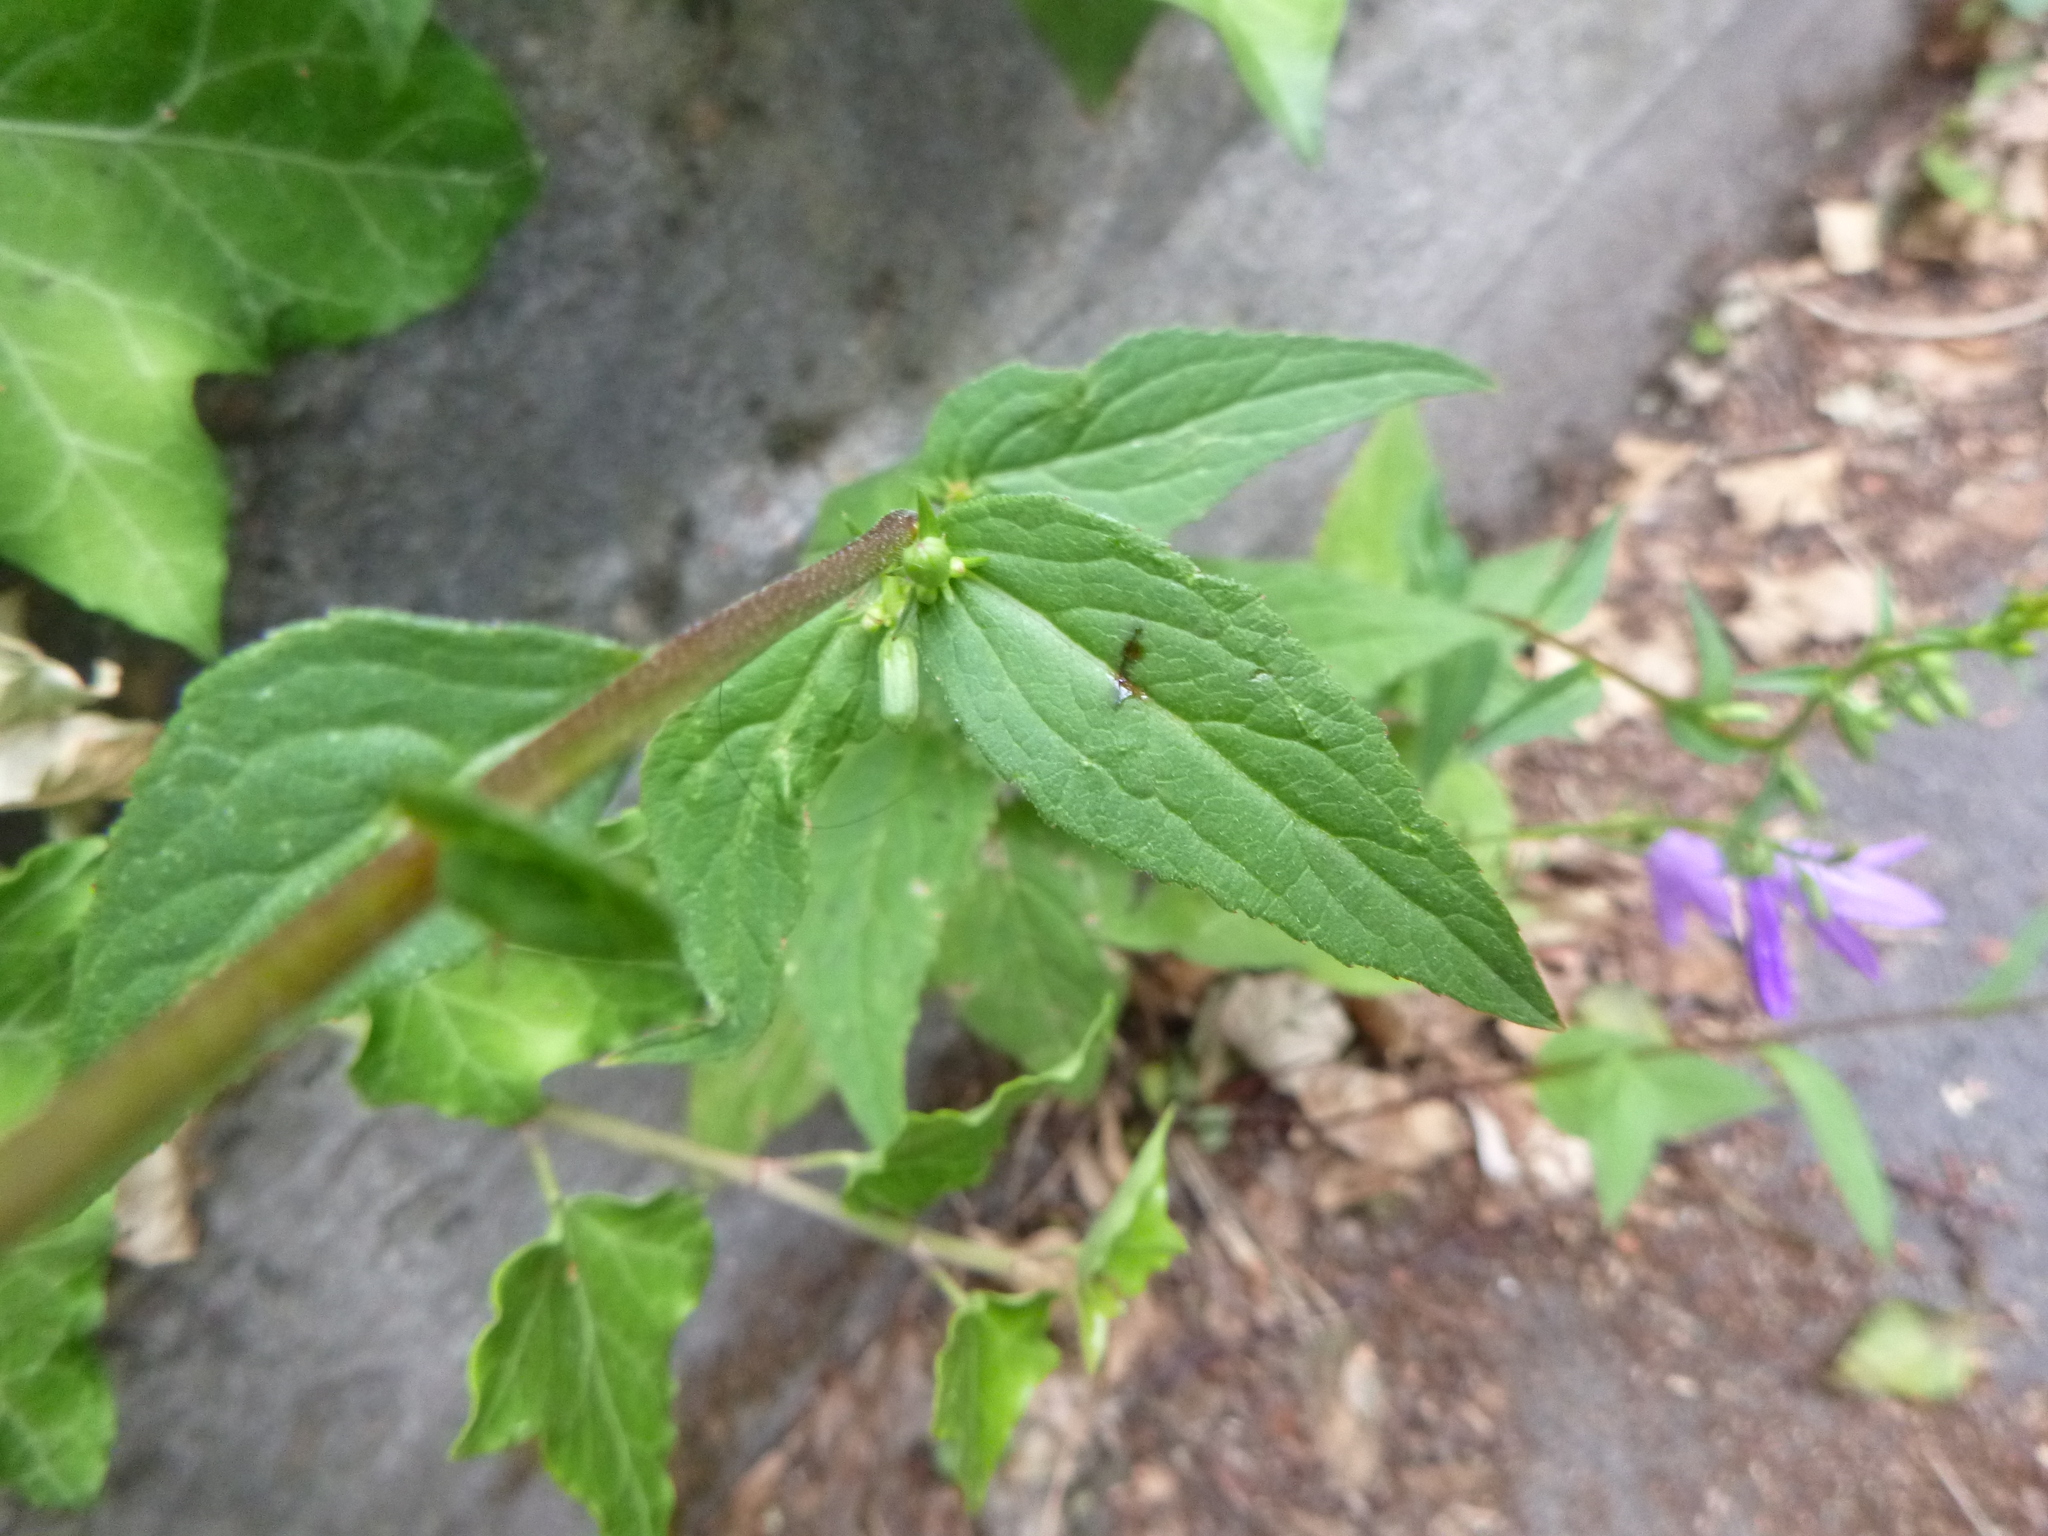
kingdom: Plantae
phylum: Tracheophyta
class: Magnoliopsida
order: Asterales
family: Campanulaceae
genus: Campanula
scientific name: Campanula rapunculoides
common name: Creeping bellflower
